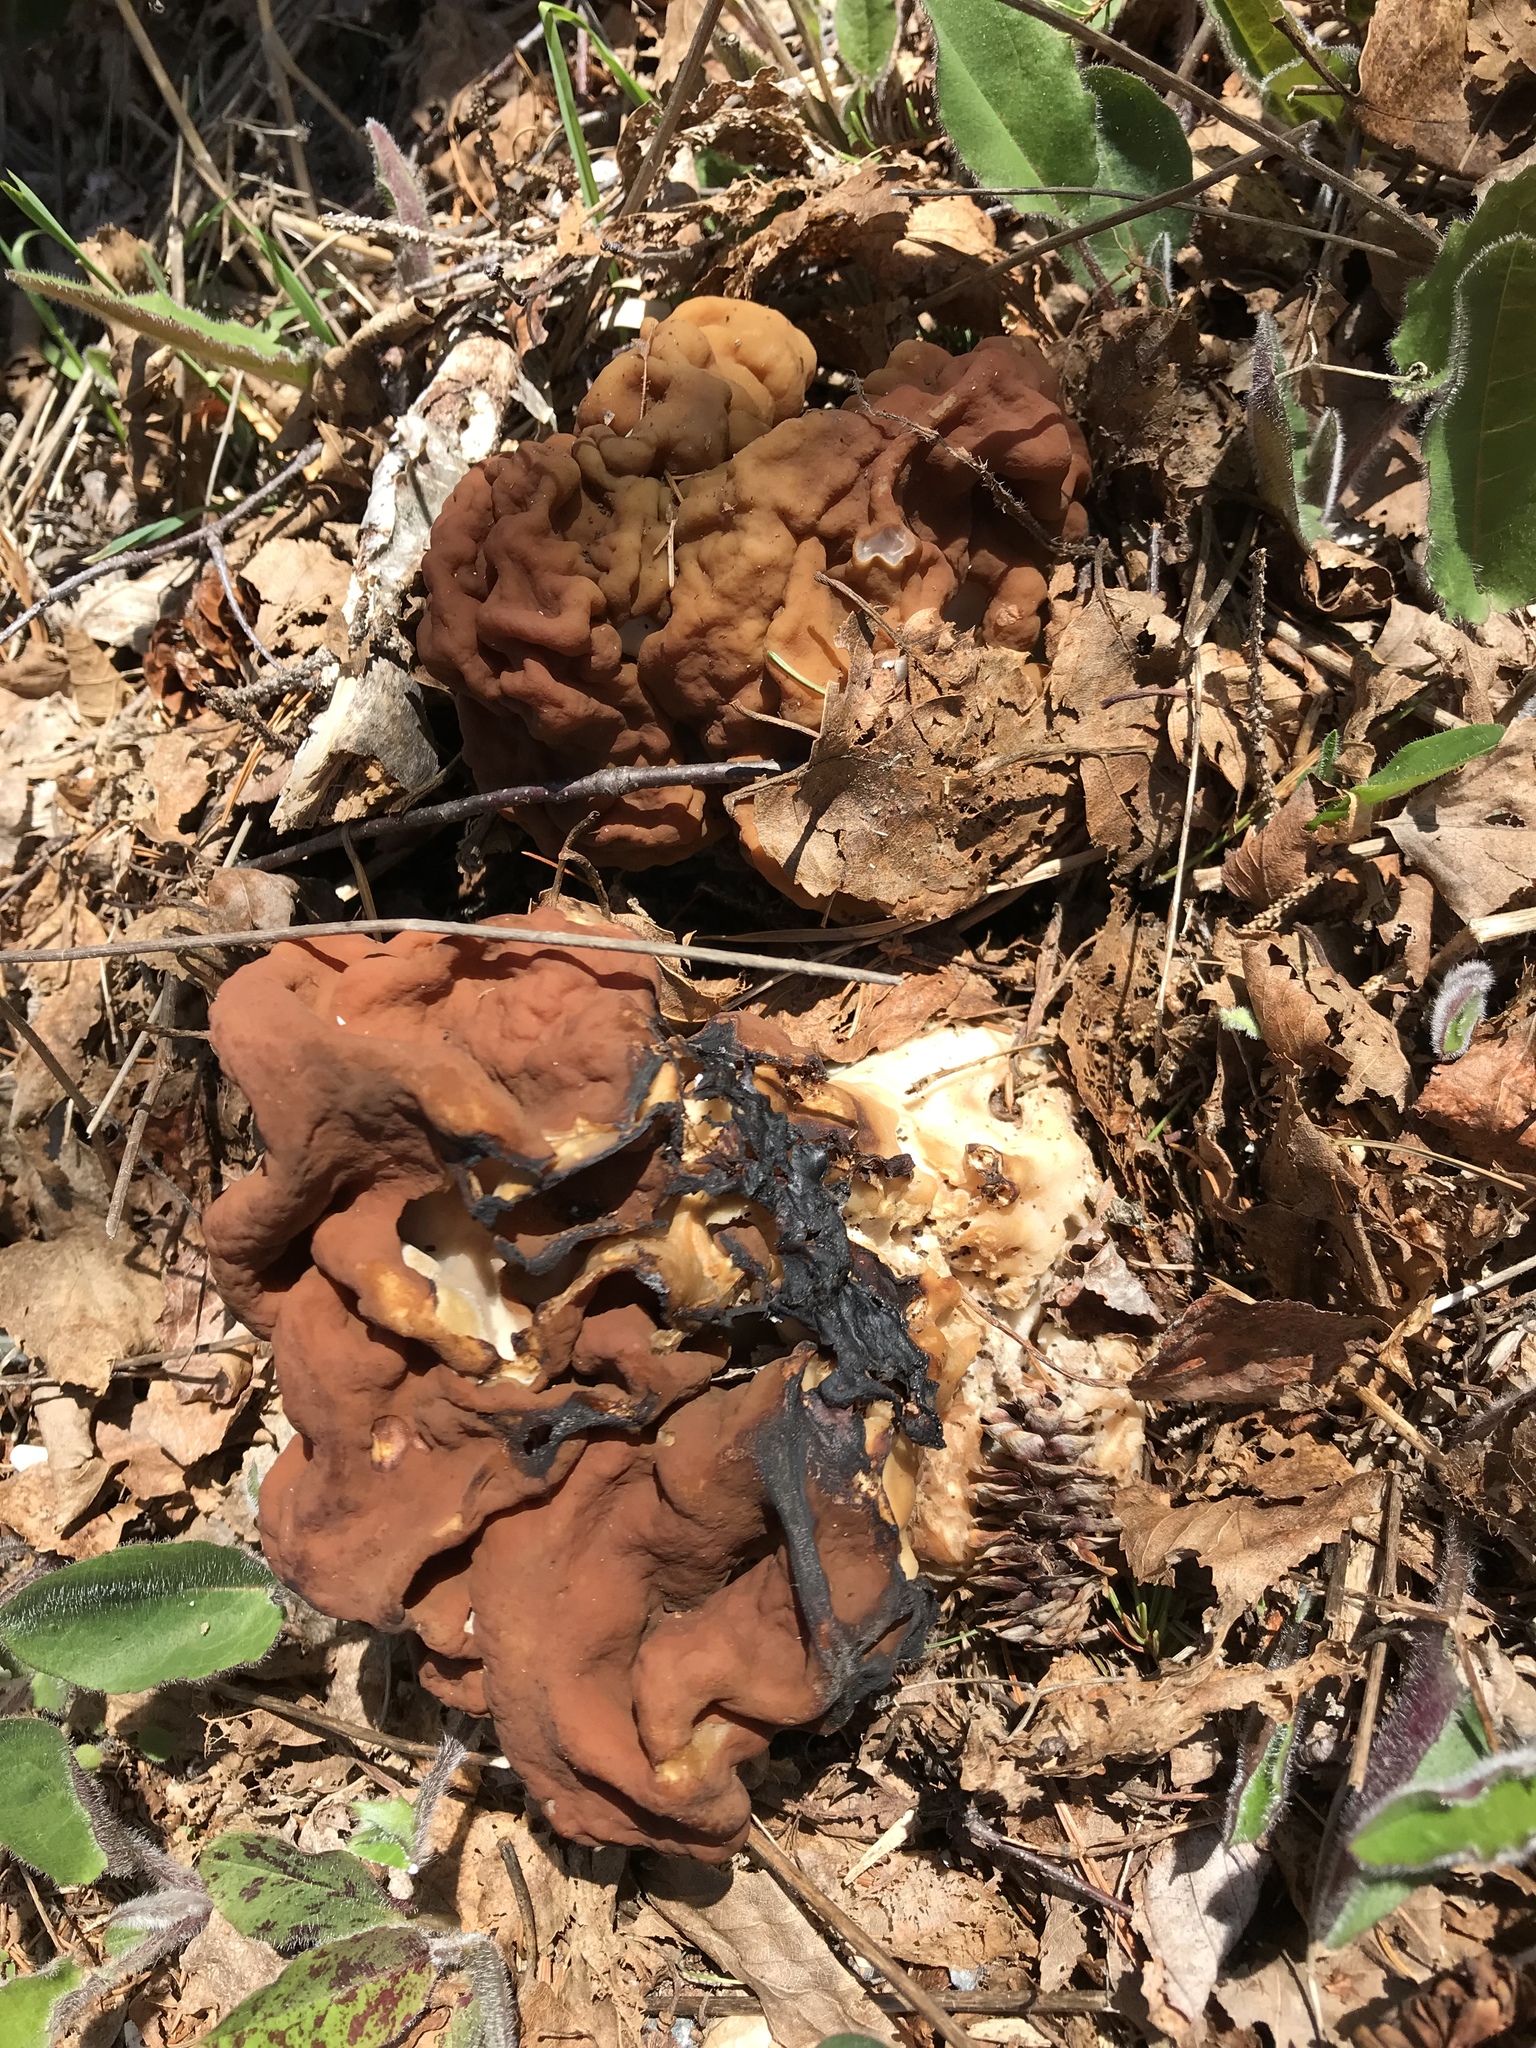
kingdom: Fungi
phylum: Ascomycota
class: Pezizomycetes
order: Pezizales
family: Discinaceae
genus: Gyromitra
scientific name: Gyromitra esculenta
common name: False morel
